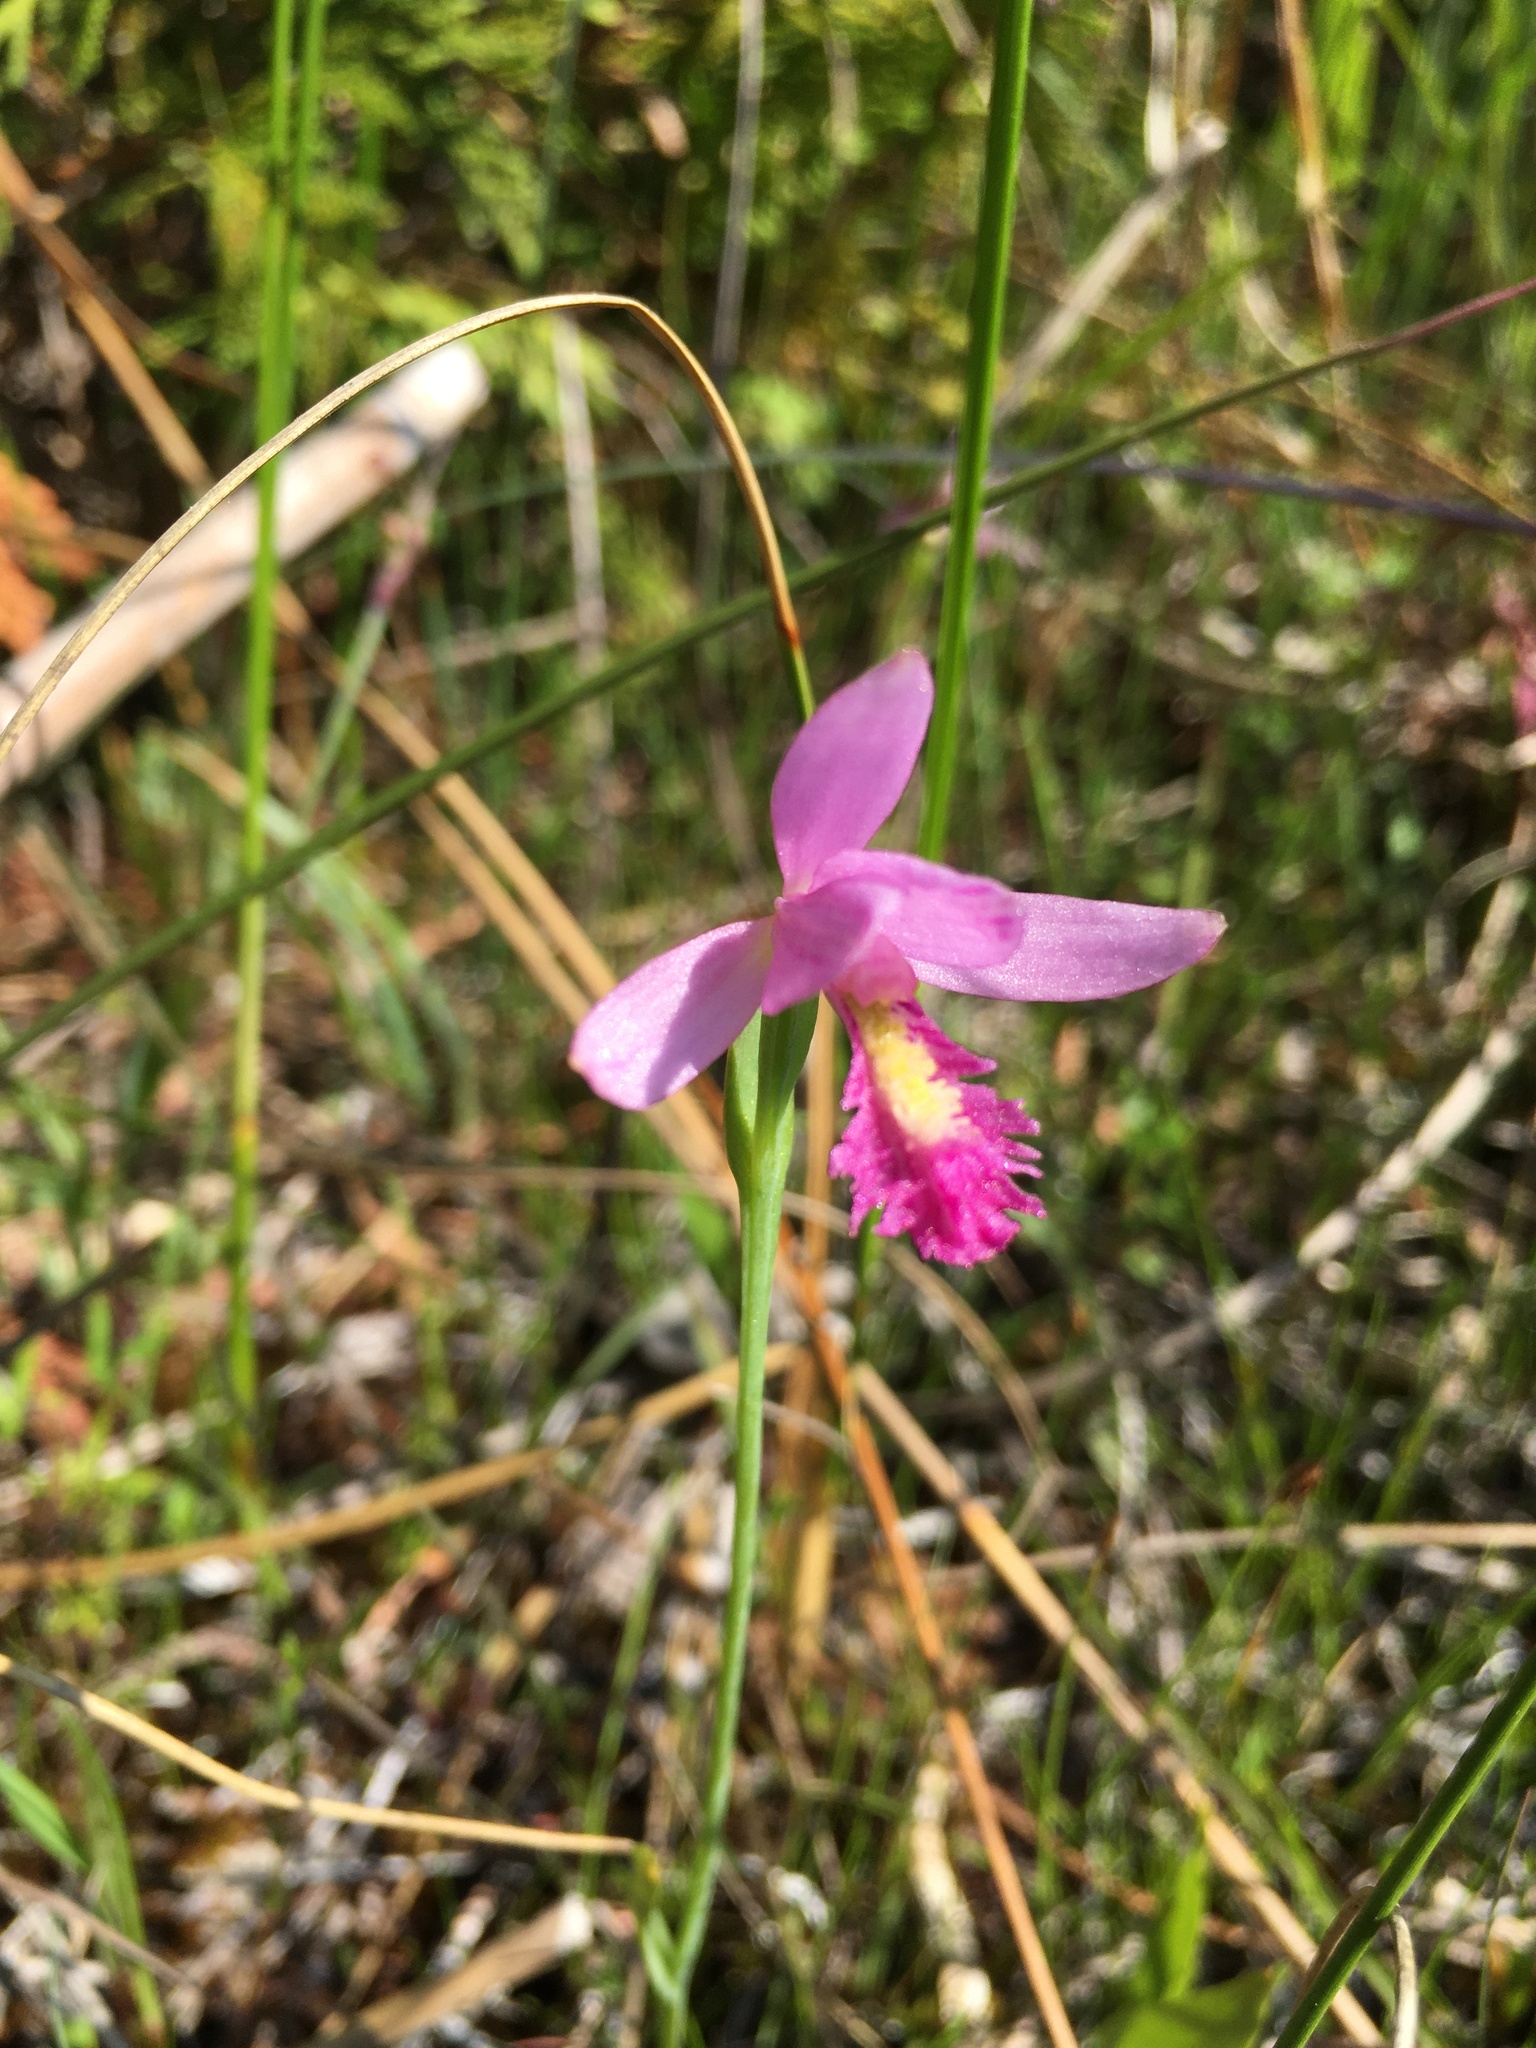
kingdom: Plantae
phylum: Tracheophyta
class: Liliopsida
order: Asparagales
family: Orchidaceae
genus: Pogonia
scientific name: Pogonia ophioglossoides
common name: Rose pogonia
